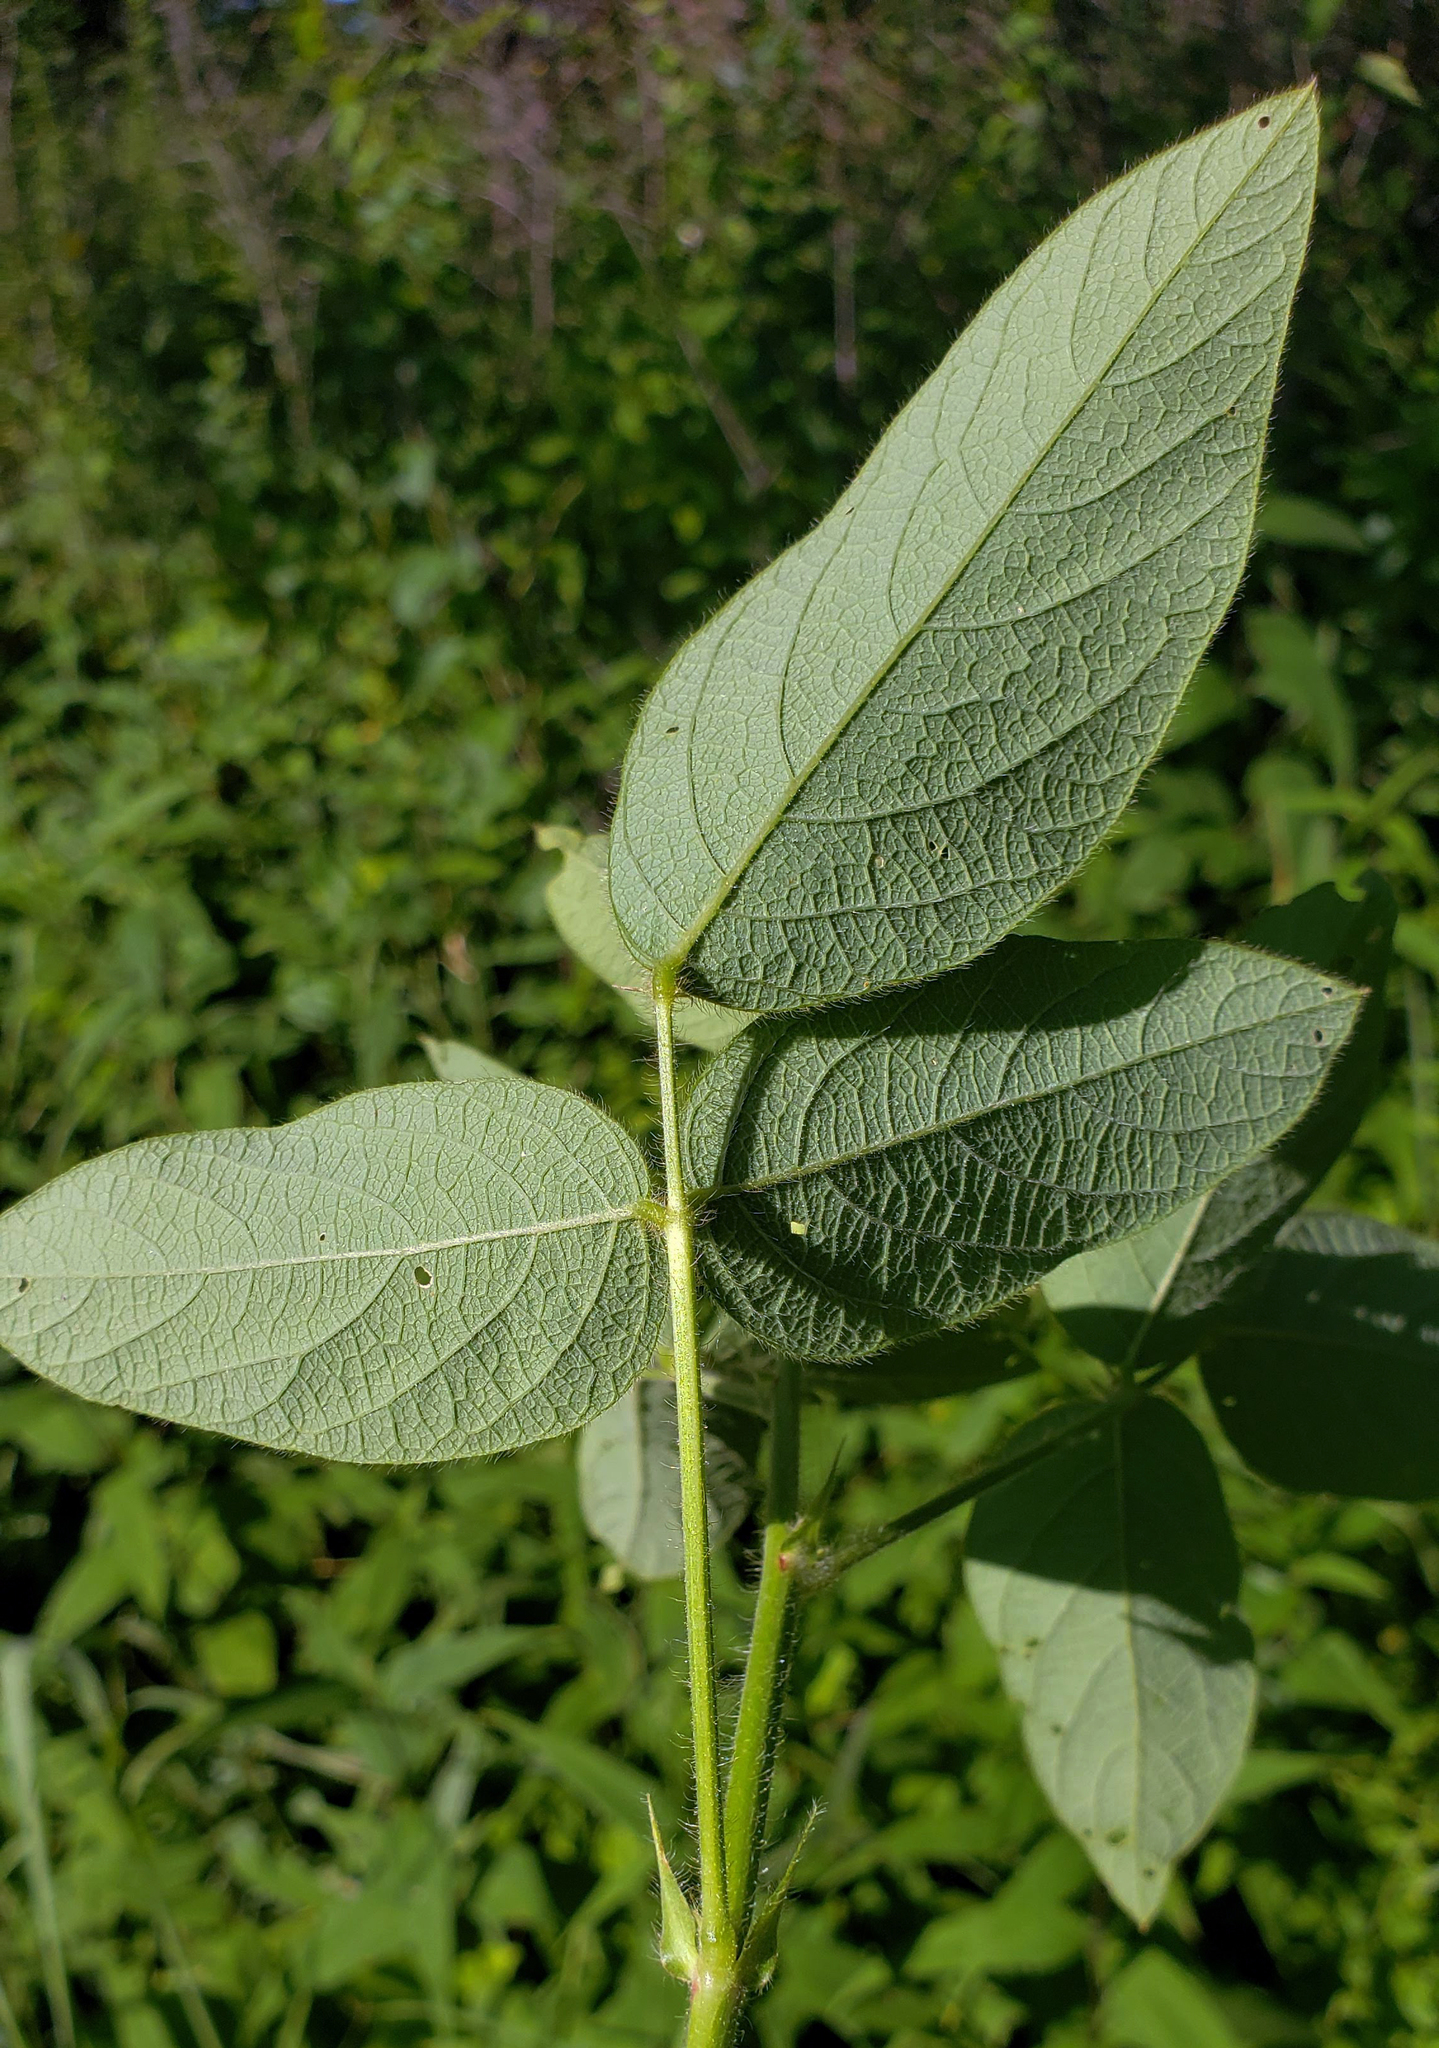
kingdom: Plantae
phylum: Tracheophyta
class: Magnoliopsida
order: Fabales
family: Fabaceae
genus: Desmodium
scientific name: Desmodium illinoense
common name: Illinois tick-clover
